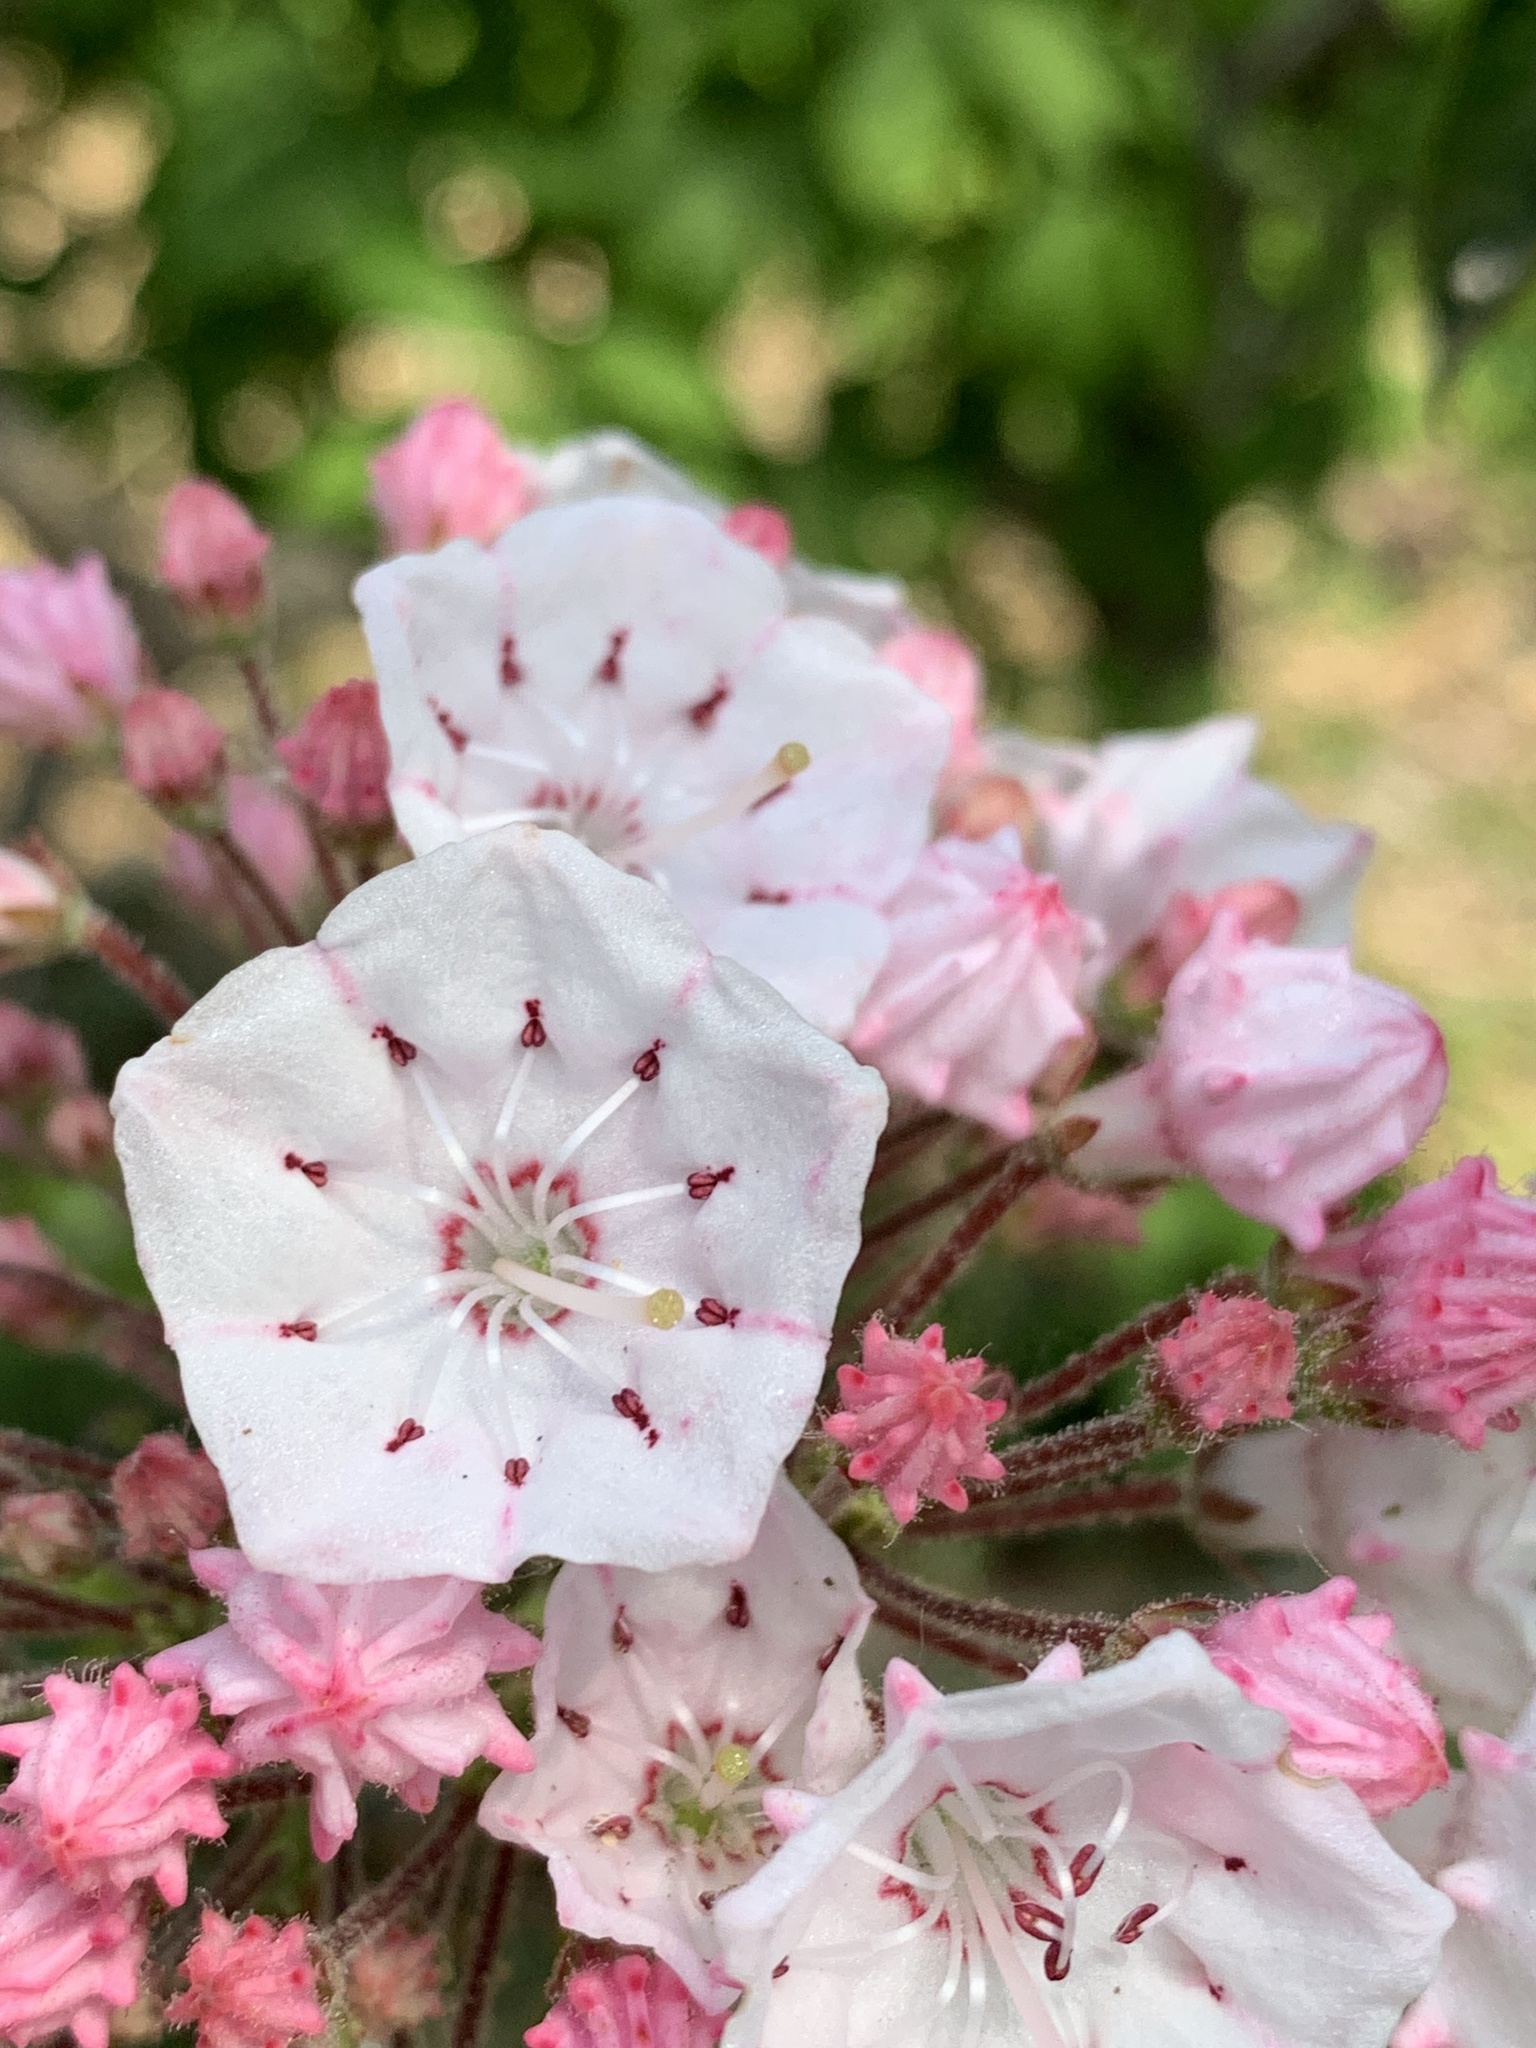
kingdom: Plantae
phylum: Tracheophyta
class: Magnoliopsida
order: Ericales
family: Ericaceae
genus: Kalmia
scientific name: Kalmia latifolia
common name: Mountain-laurel
